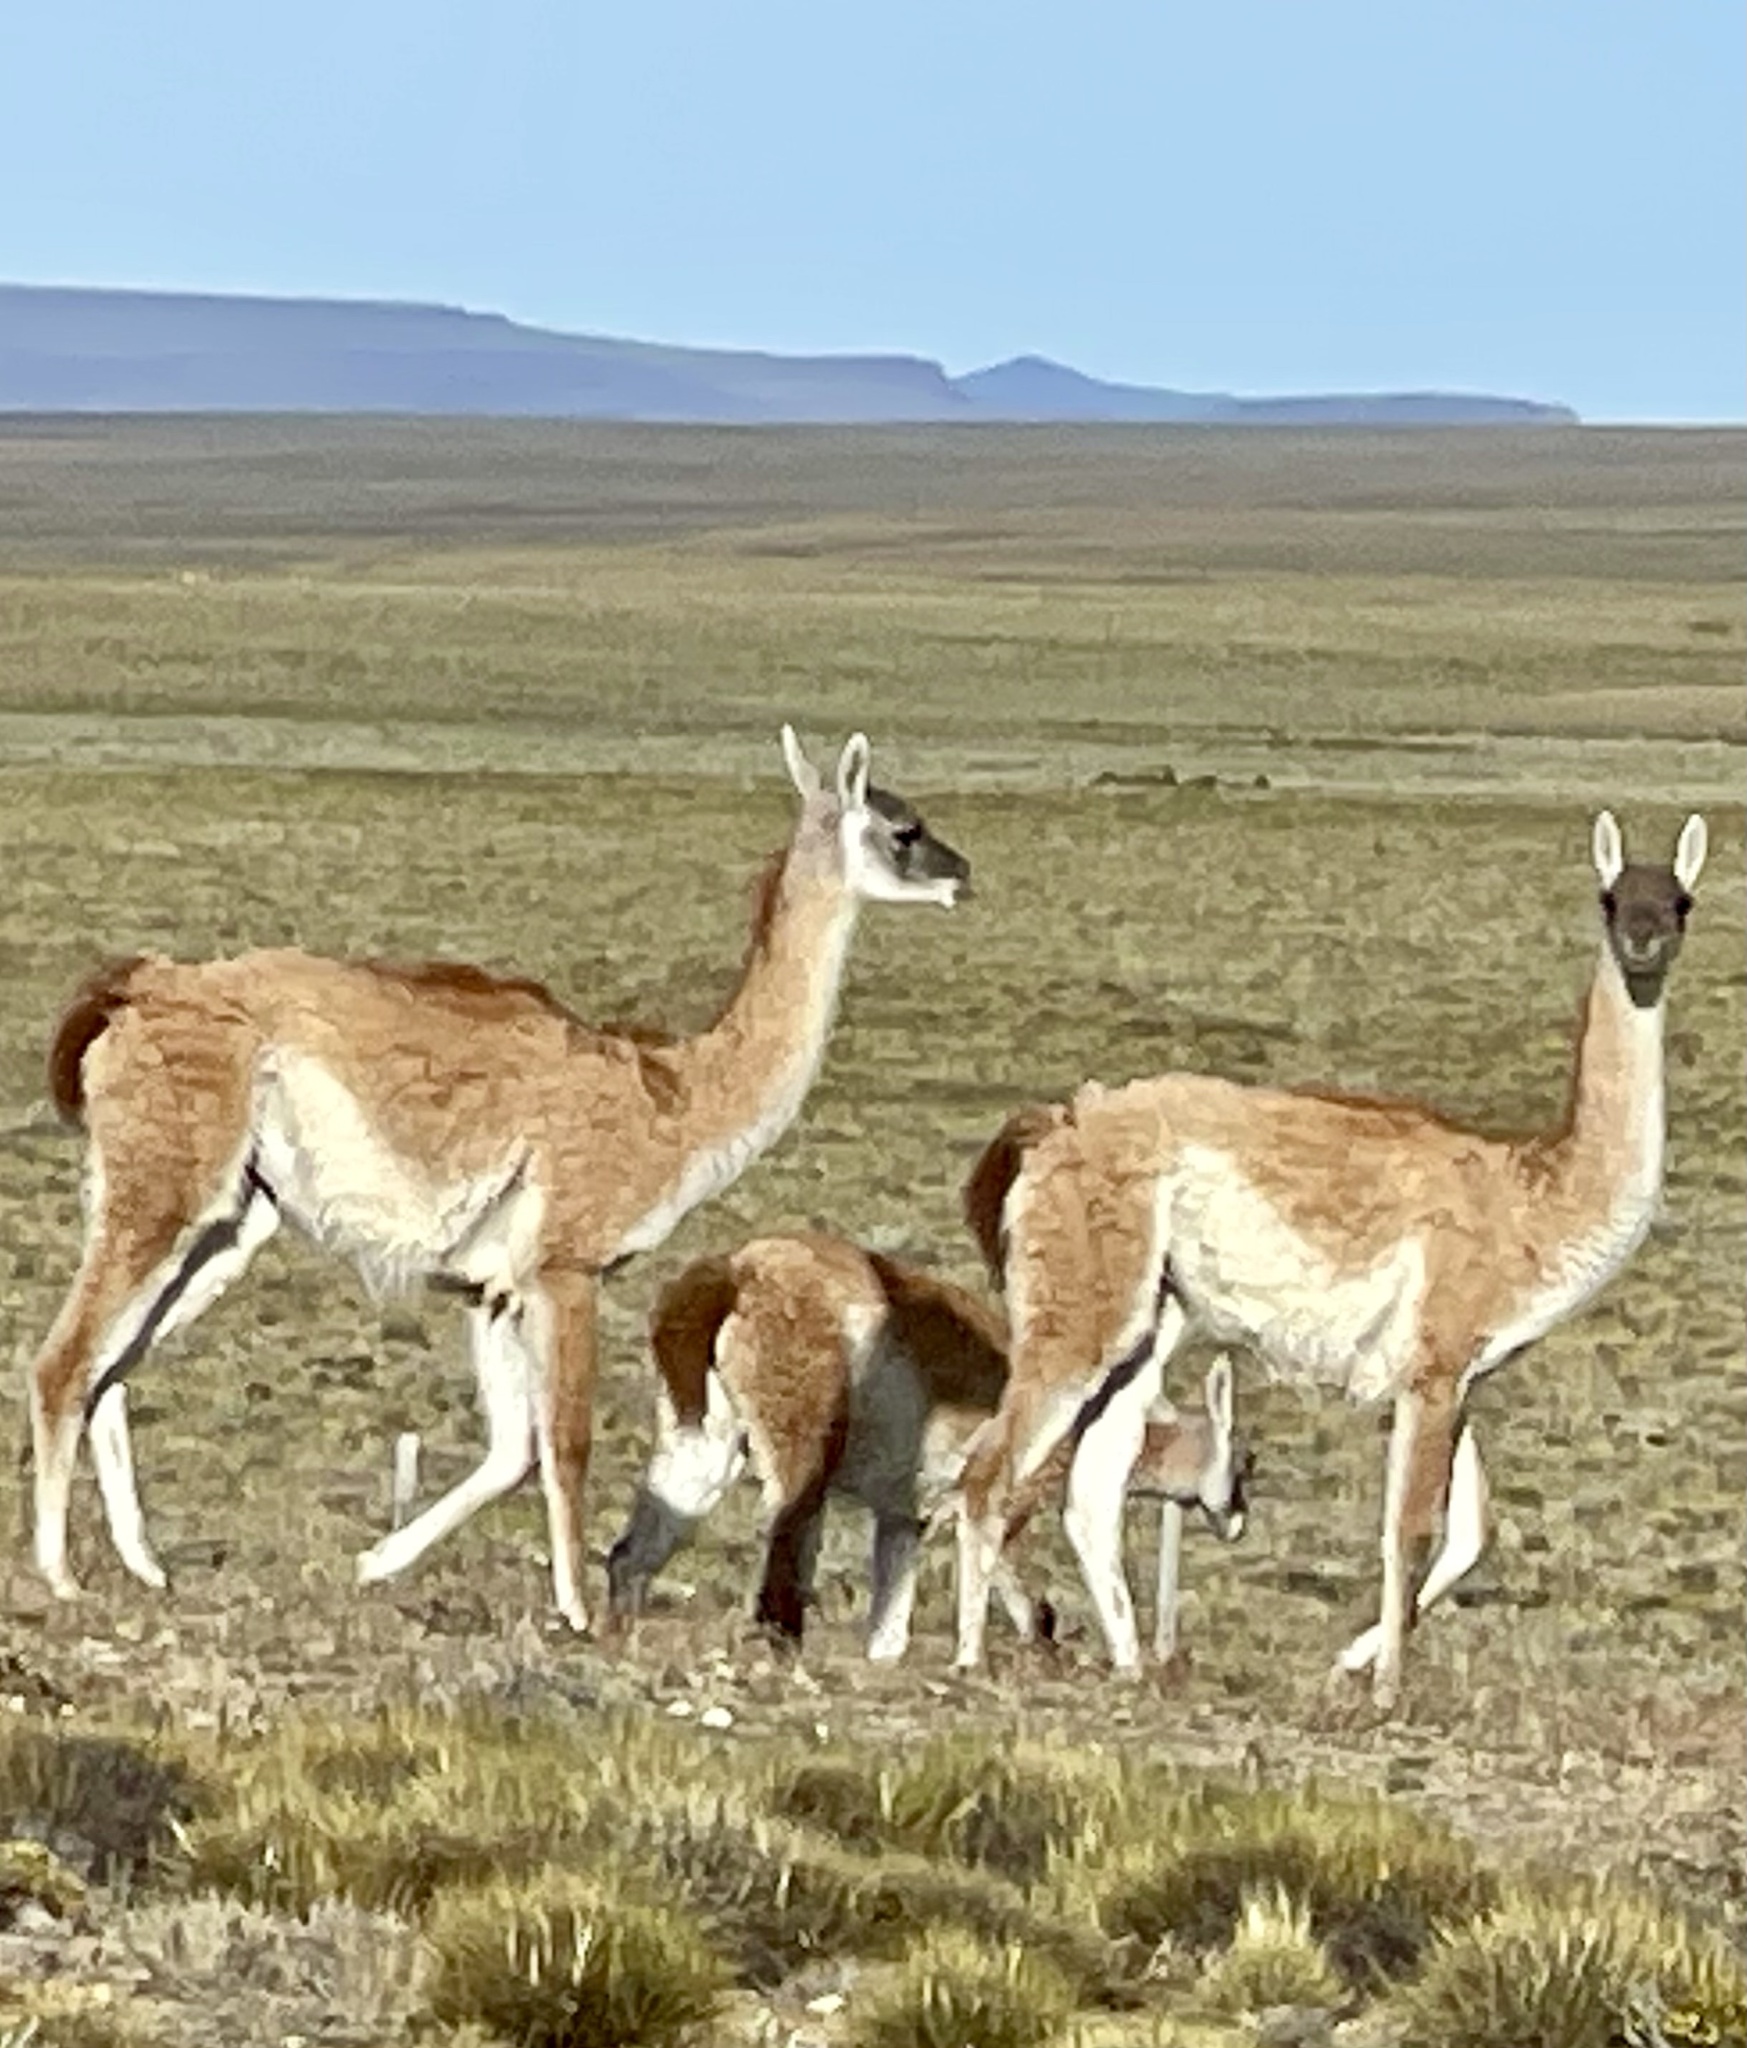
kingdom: Animalia
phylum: Chordata
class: Mammalia
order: Artiodactyla
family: Camelidae
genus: Lama
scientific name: Lama glama
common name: Llama
